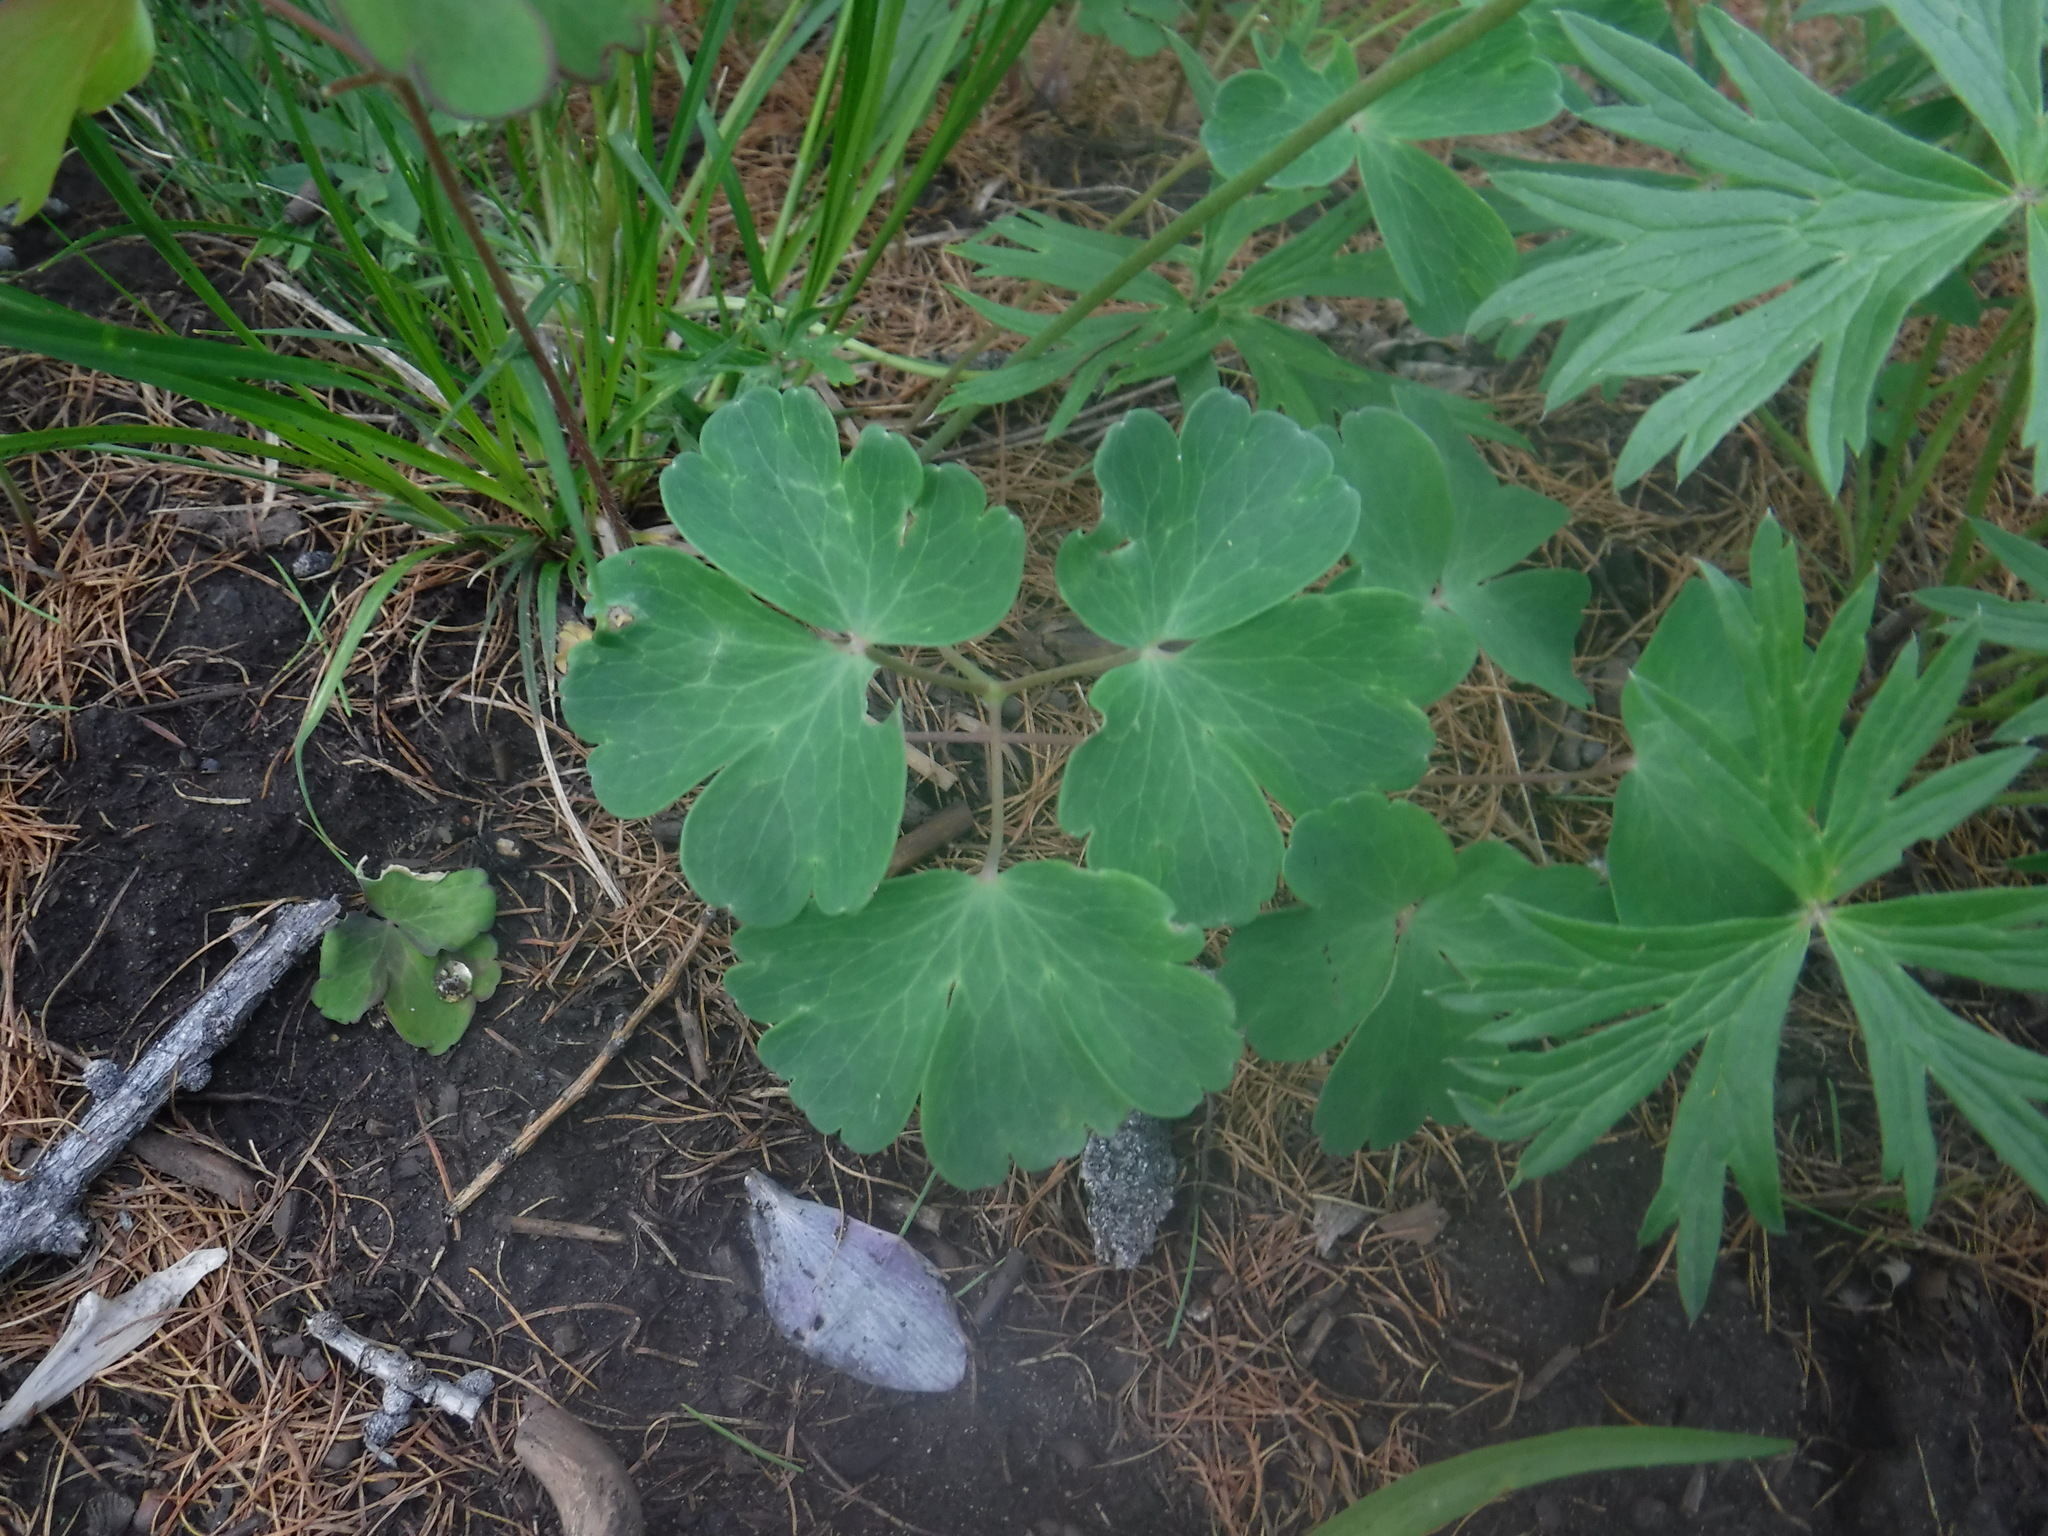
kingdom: Plantae
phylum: Tracheophyta
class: Magnoliopsida
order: Ranunculales
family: Ranunculaceae
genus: Aquilegia
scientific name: Aquilegia sibirica
